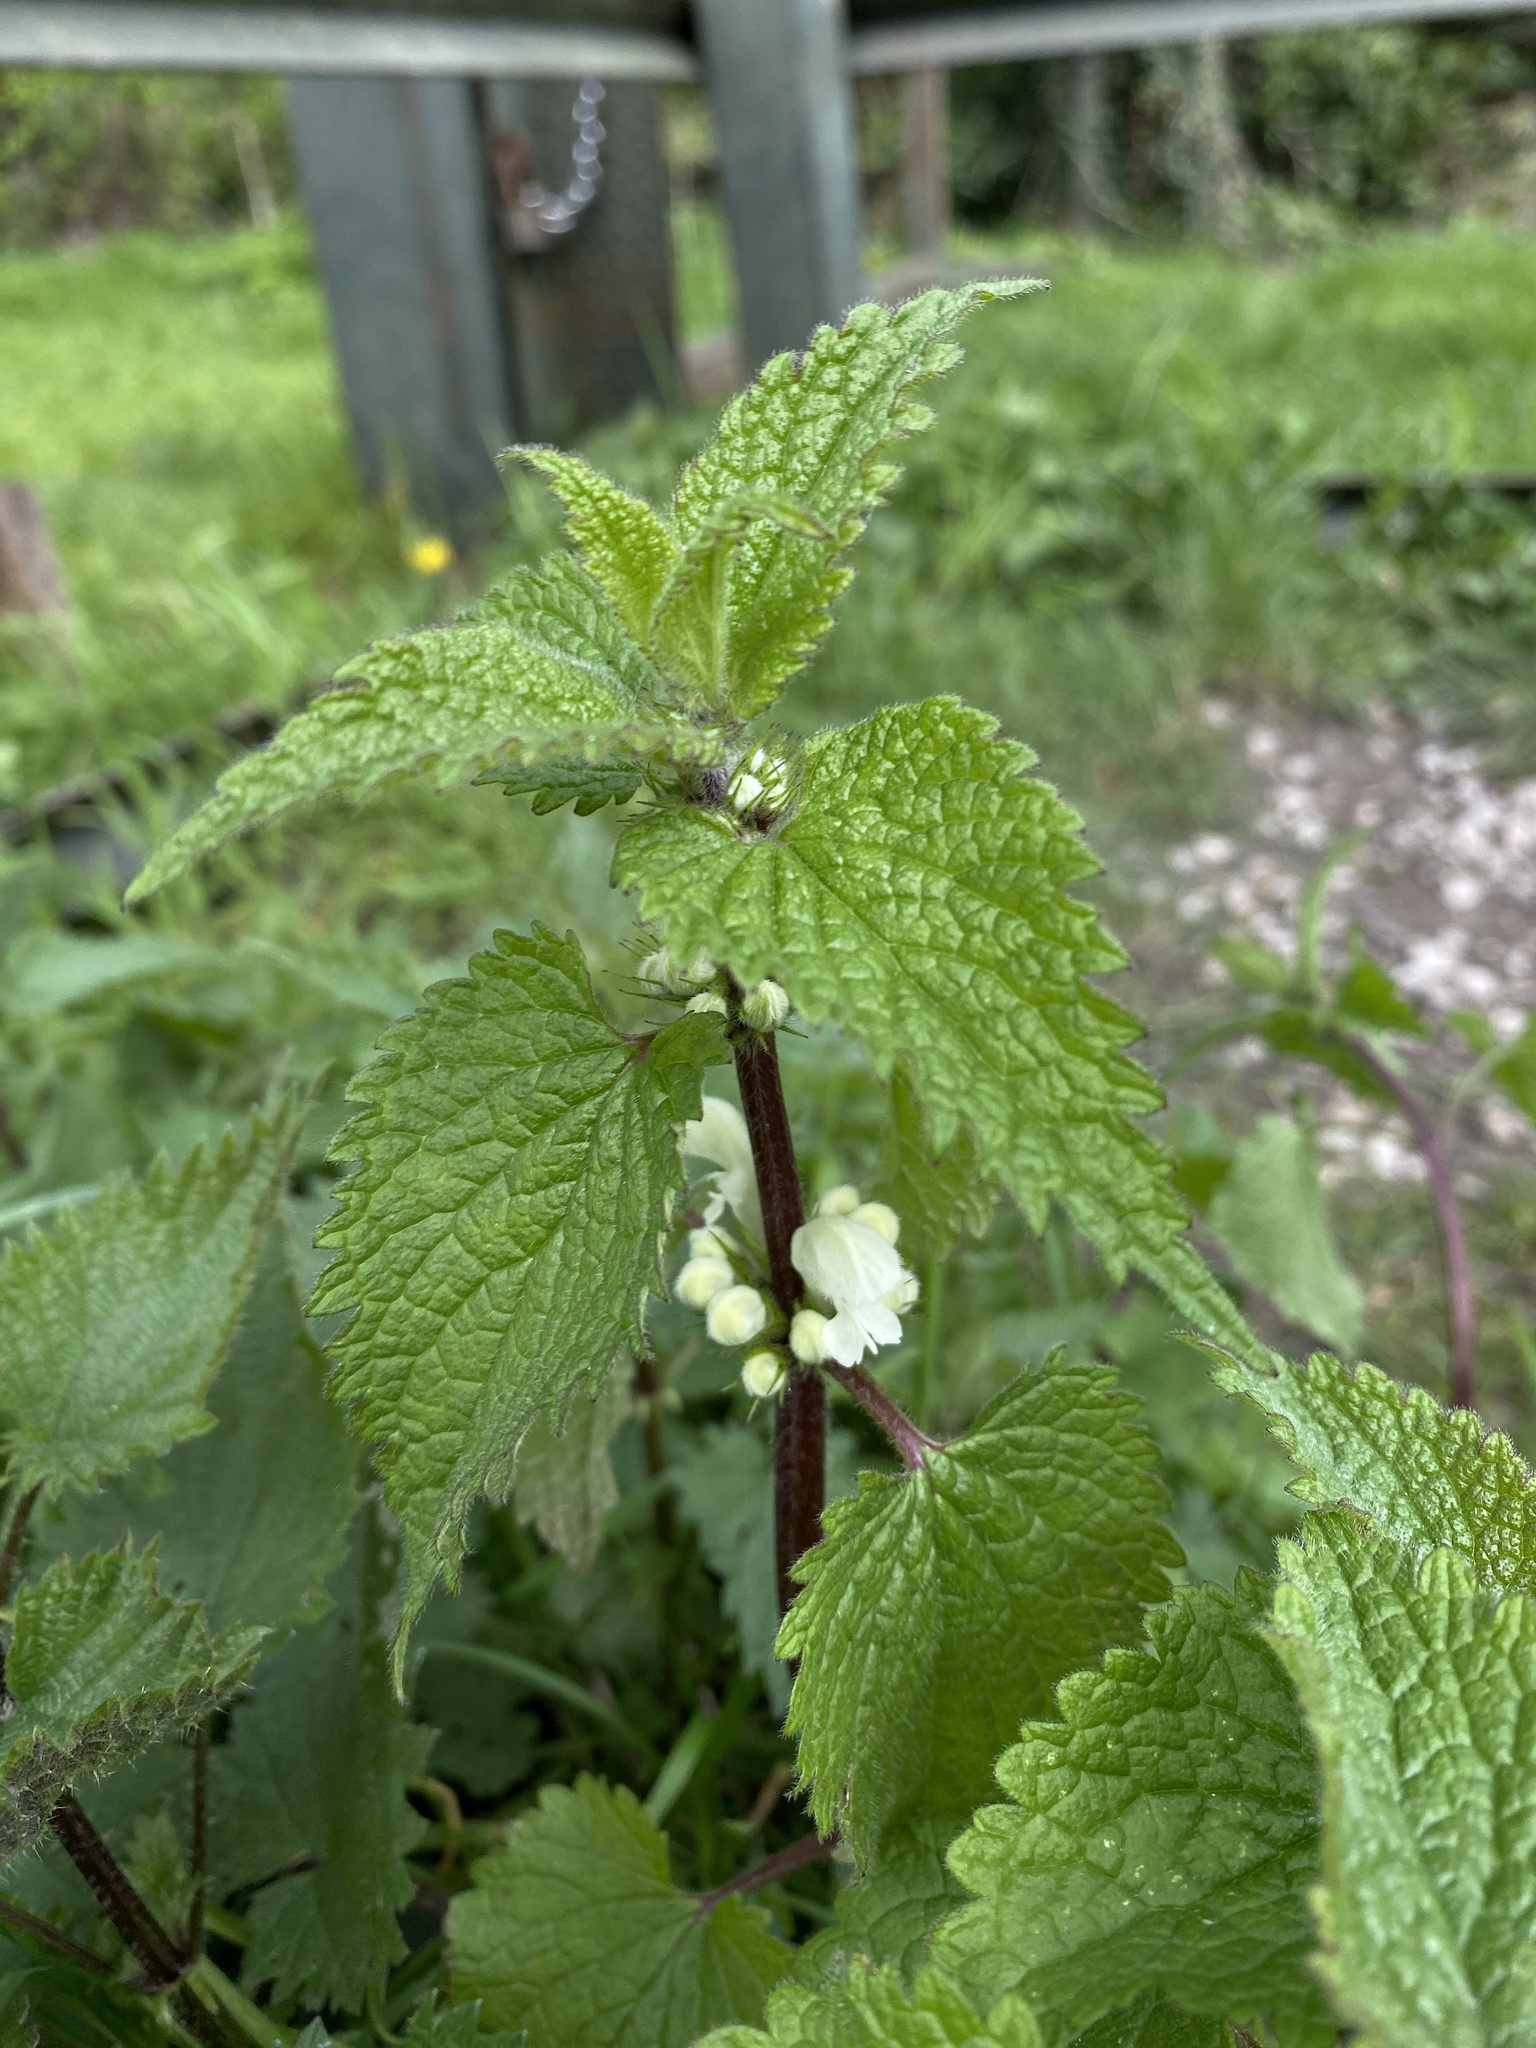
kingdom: Plantae
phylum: Tracheophyta
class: Magnoliopsida
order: Lamiales
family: Lamiaceae
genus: Lamium
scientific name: Lamium album
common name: White dead-nettle
